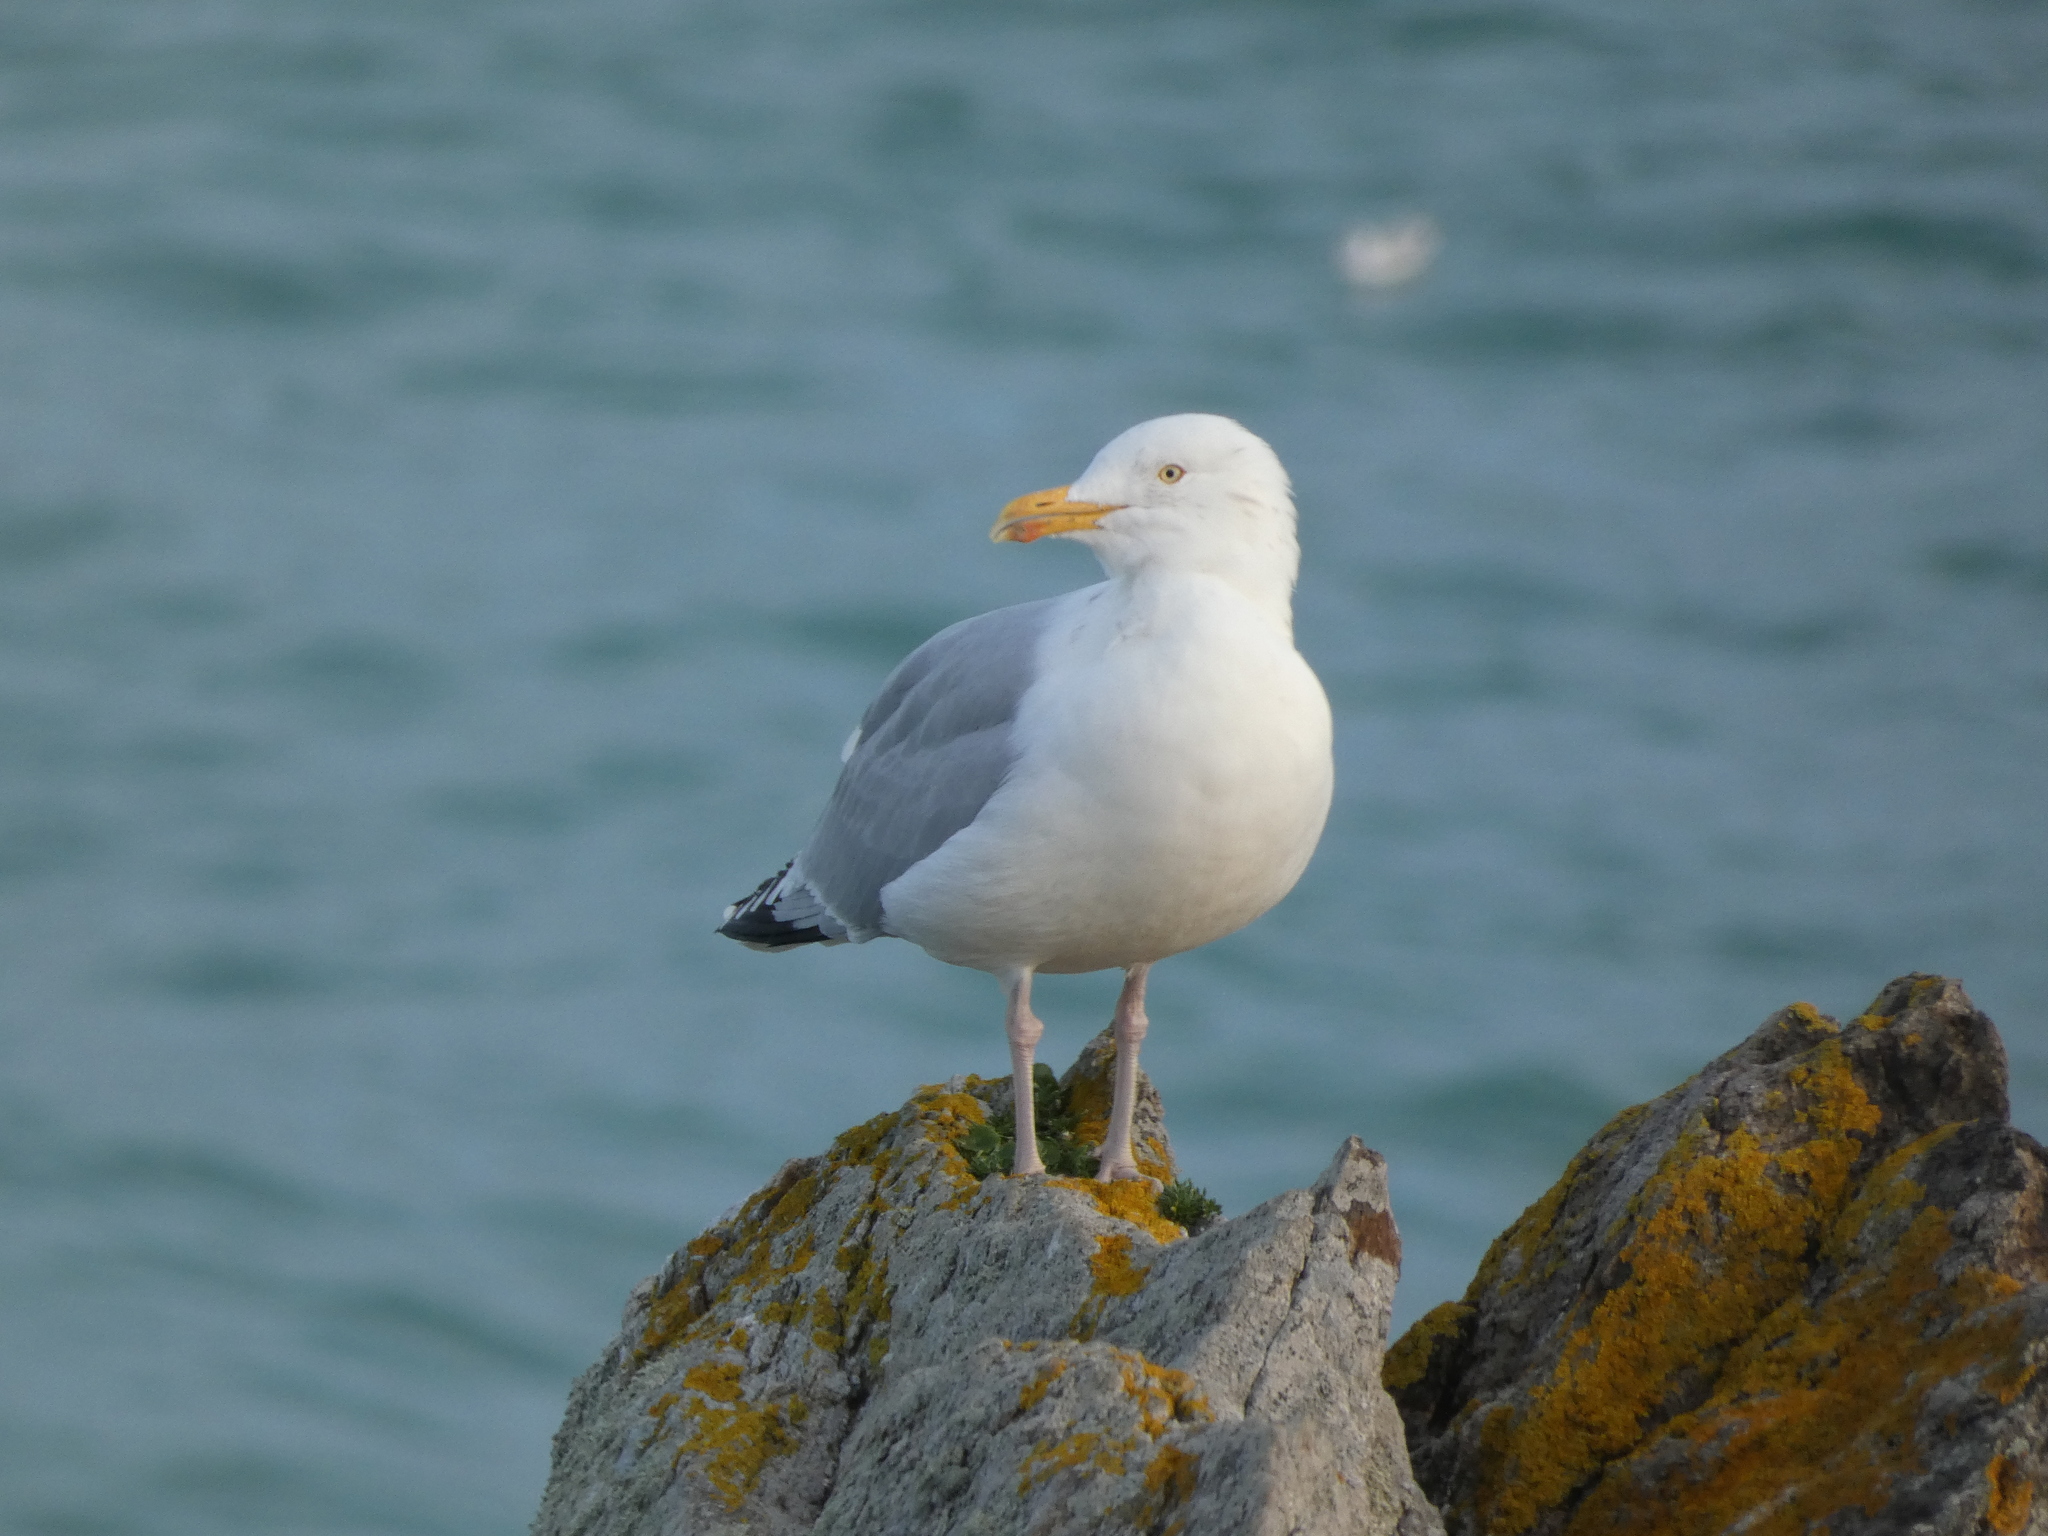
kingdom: Animalia
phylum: Chordata
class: Aves
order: Charadriiformes
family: Laridae
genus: Larus
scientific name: Larus argentatus
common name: Herring gull
